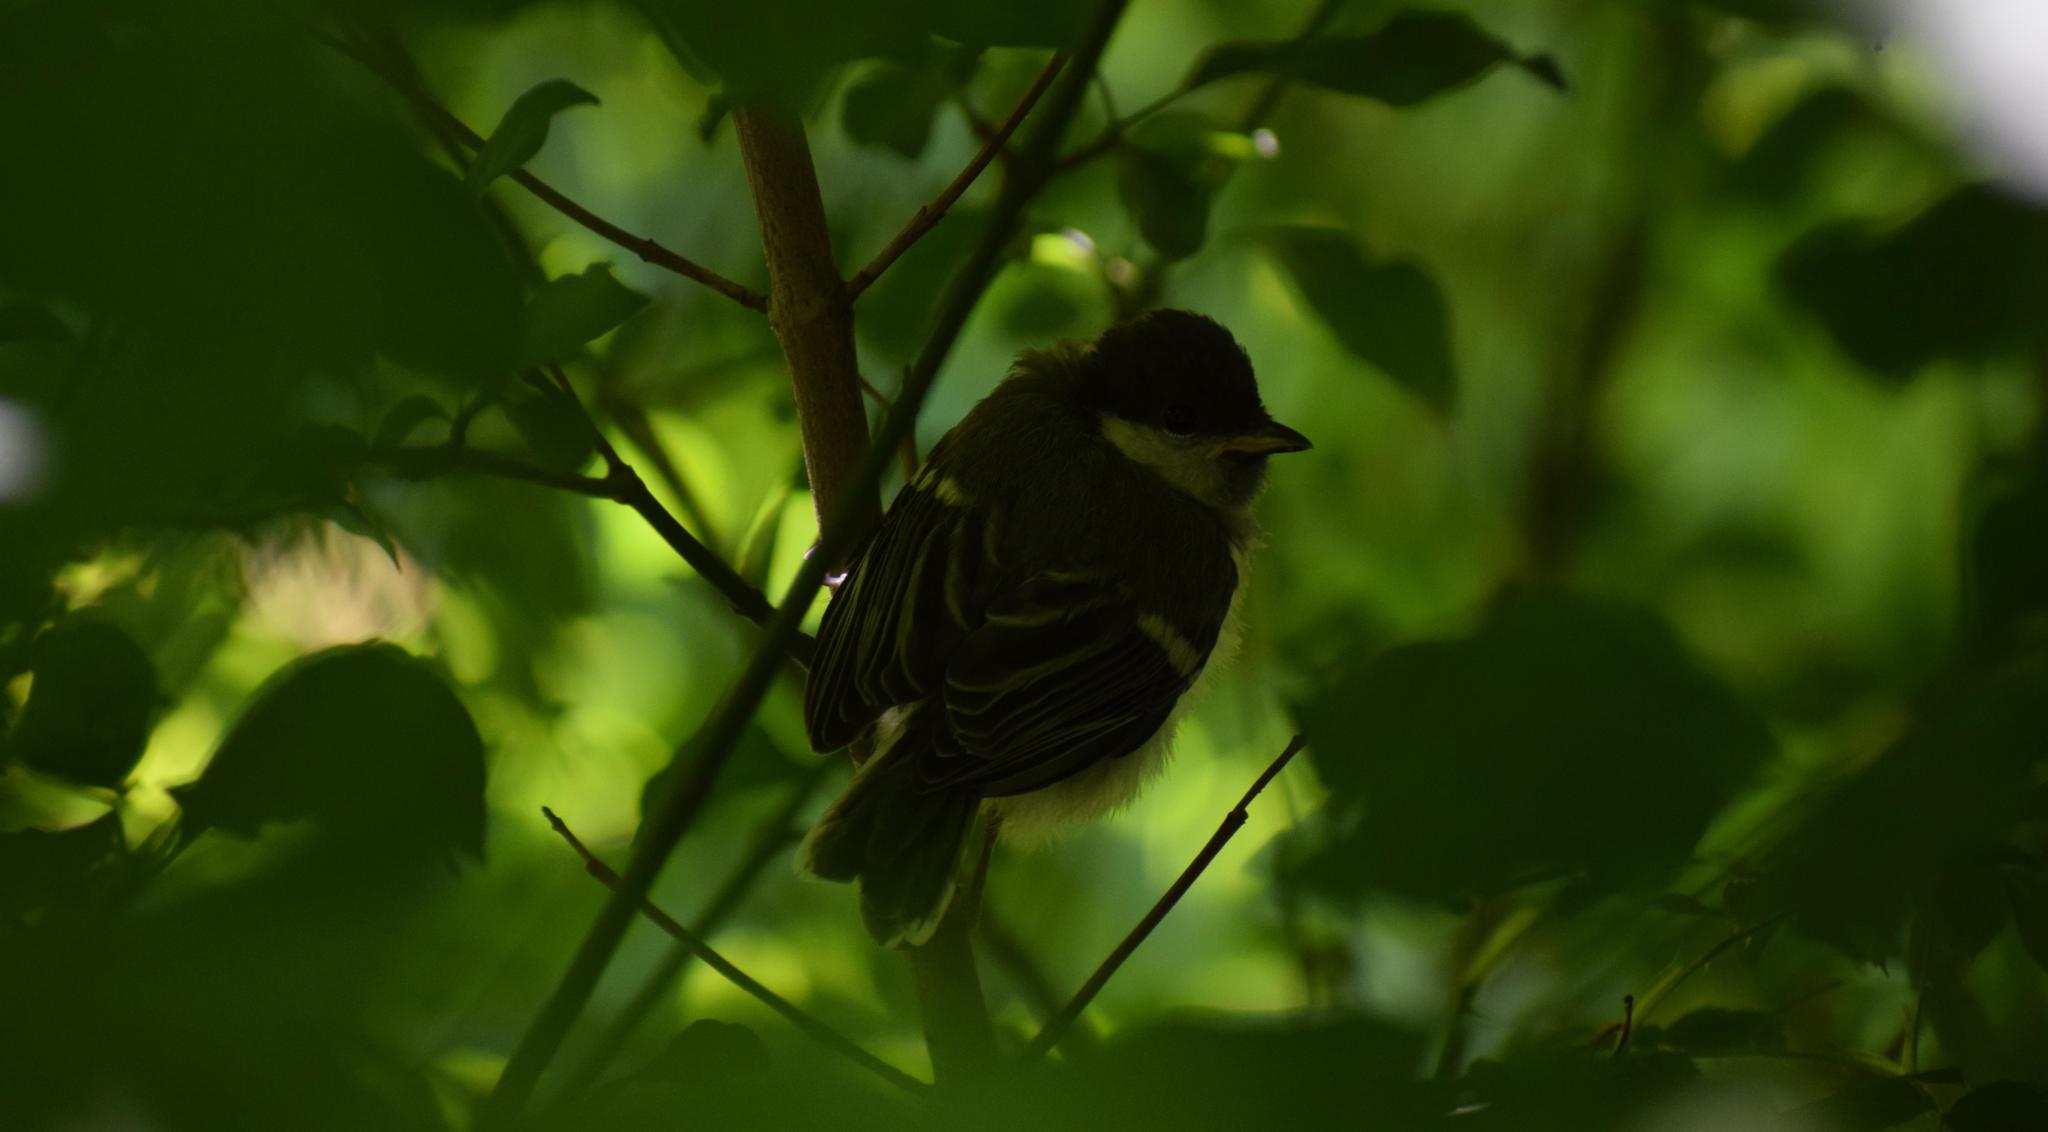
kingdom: Animalia
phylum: Chordata
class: Aves
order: Passeriformes
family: Paridae
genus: Parus
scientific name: Parus major
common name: Great tit
